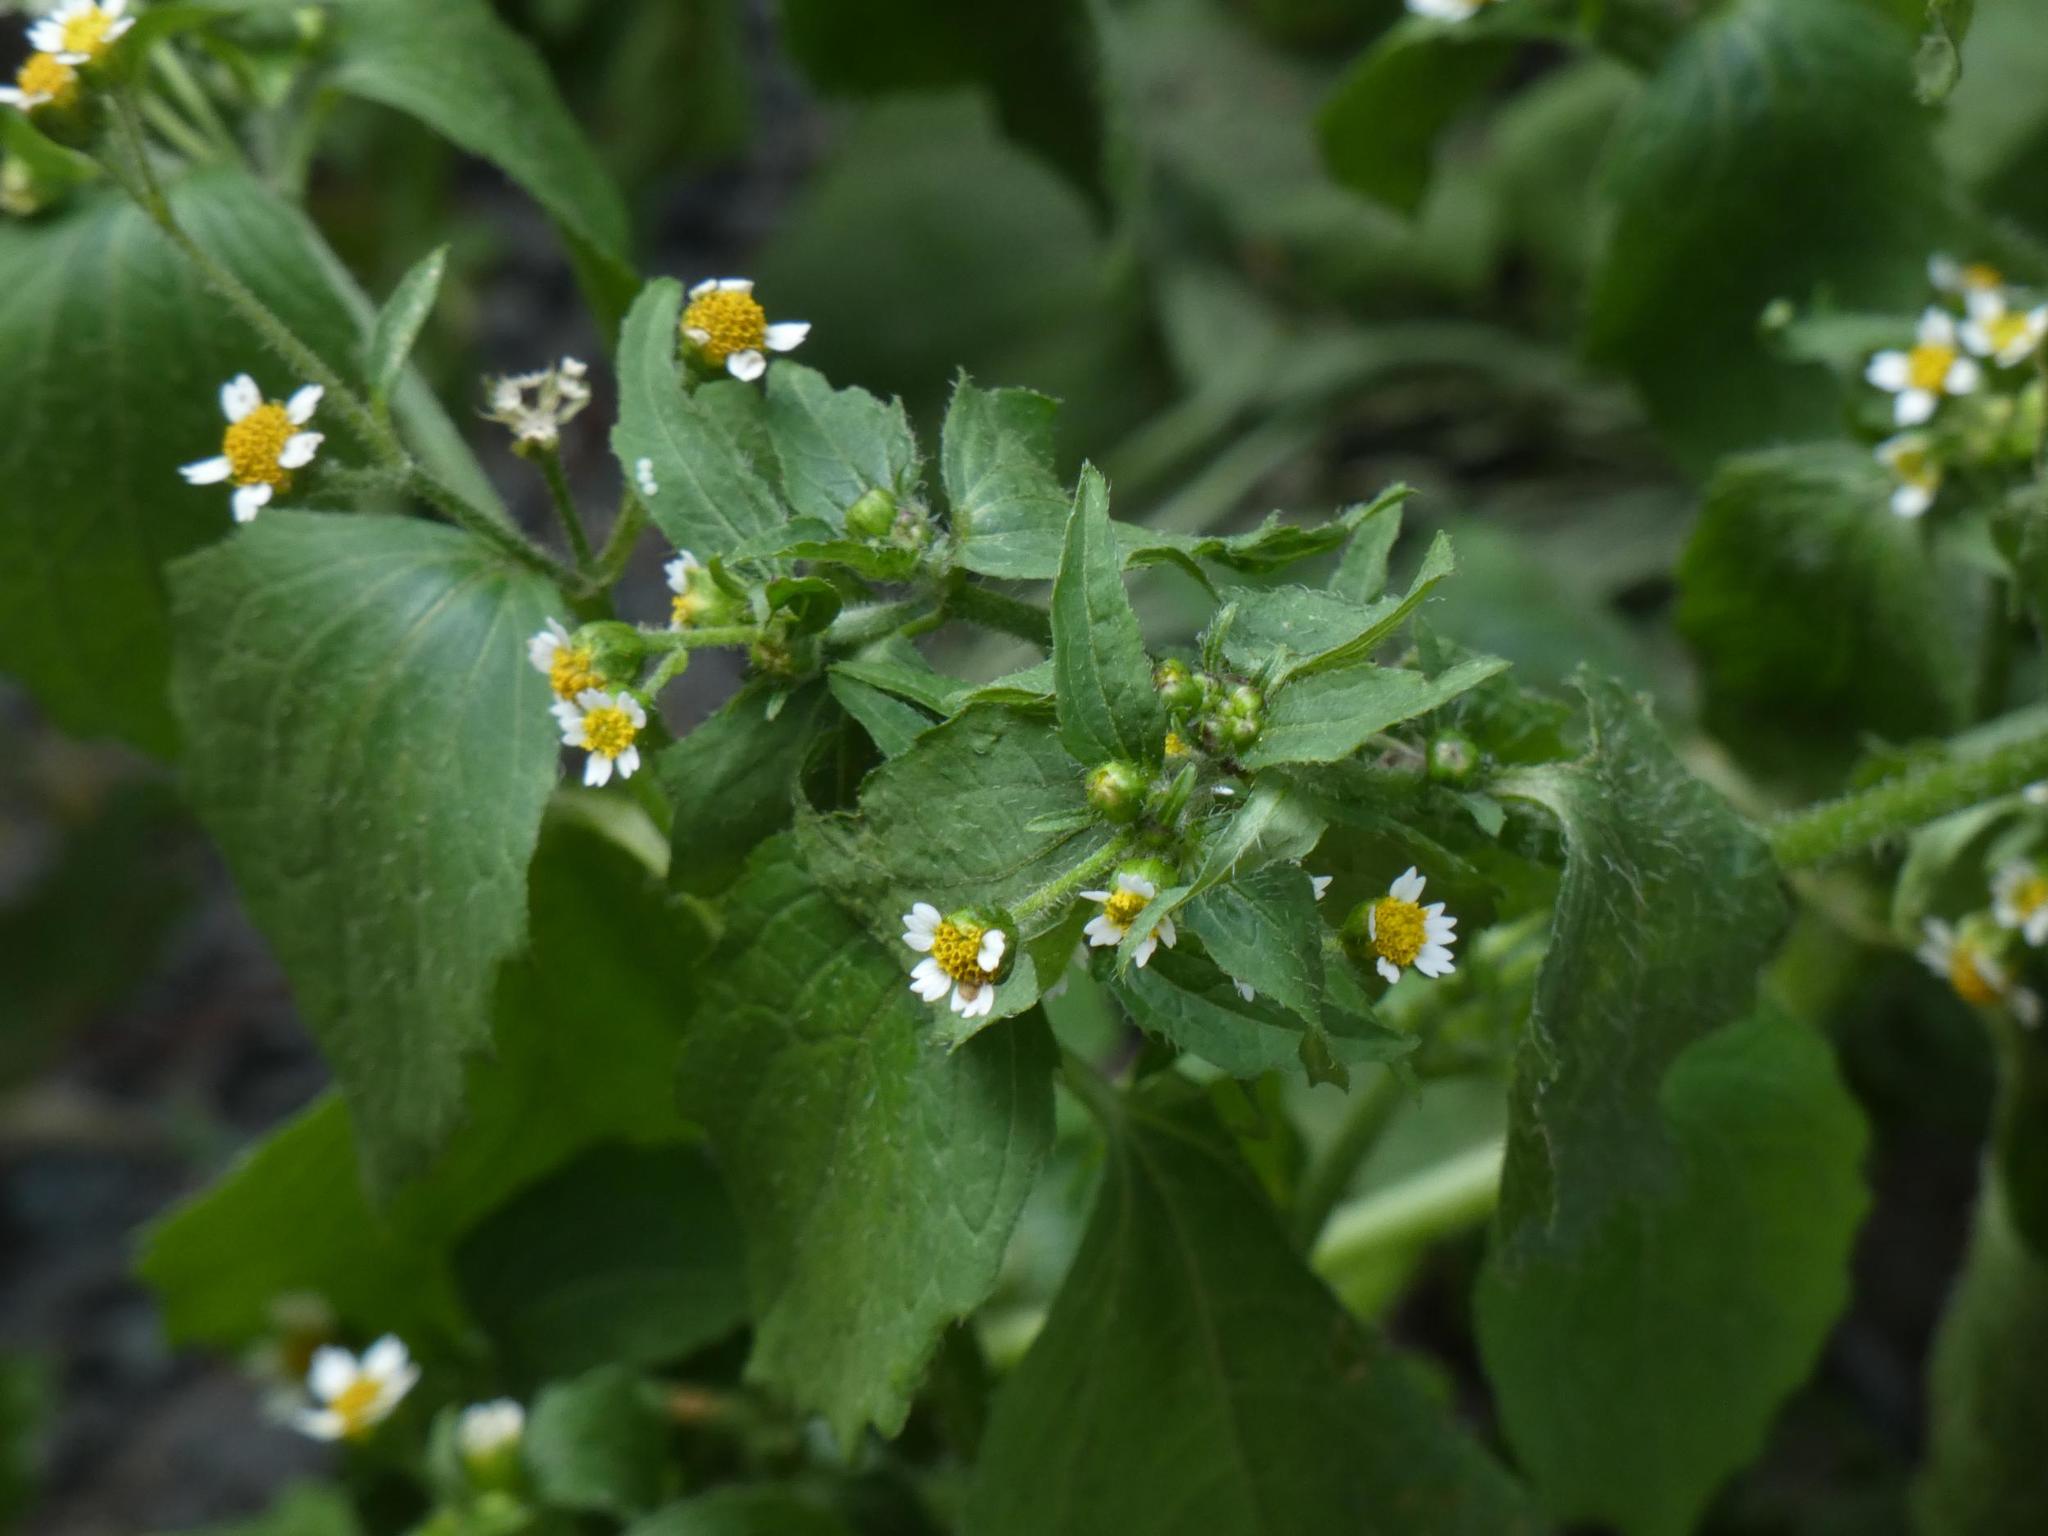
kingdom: Plantae
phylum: Tracheophyta
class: Magnoliopsida
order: Asterales
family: Asteraceae
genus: Galinsoga
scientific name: Galinsoga quadriradiata
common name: Shaggy soldier
